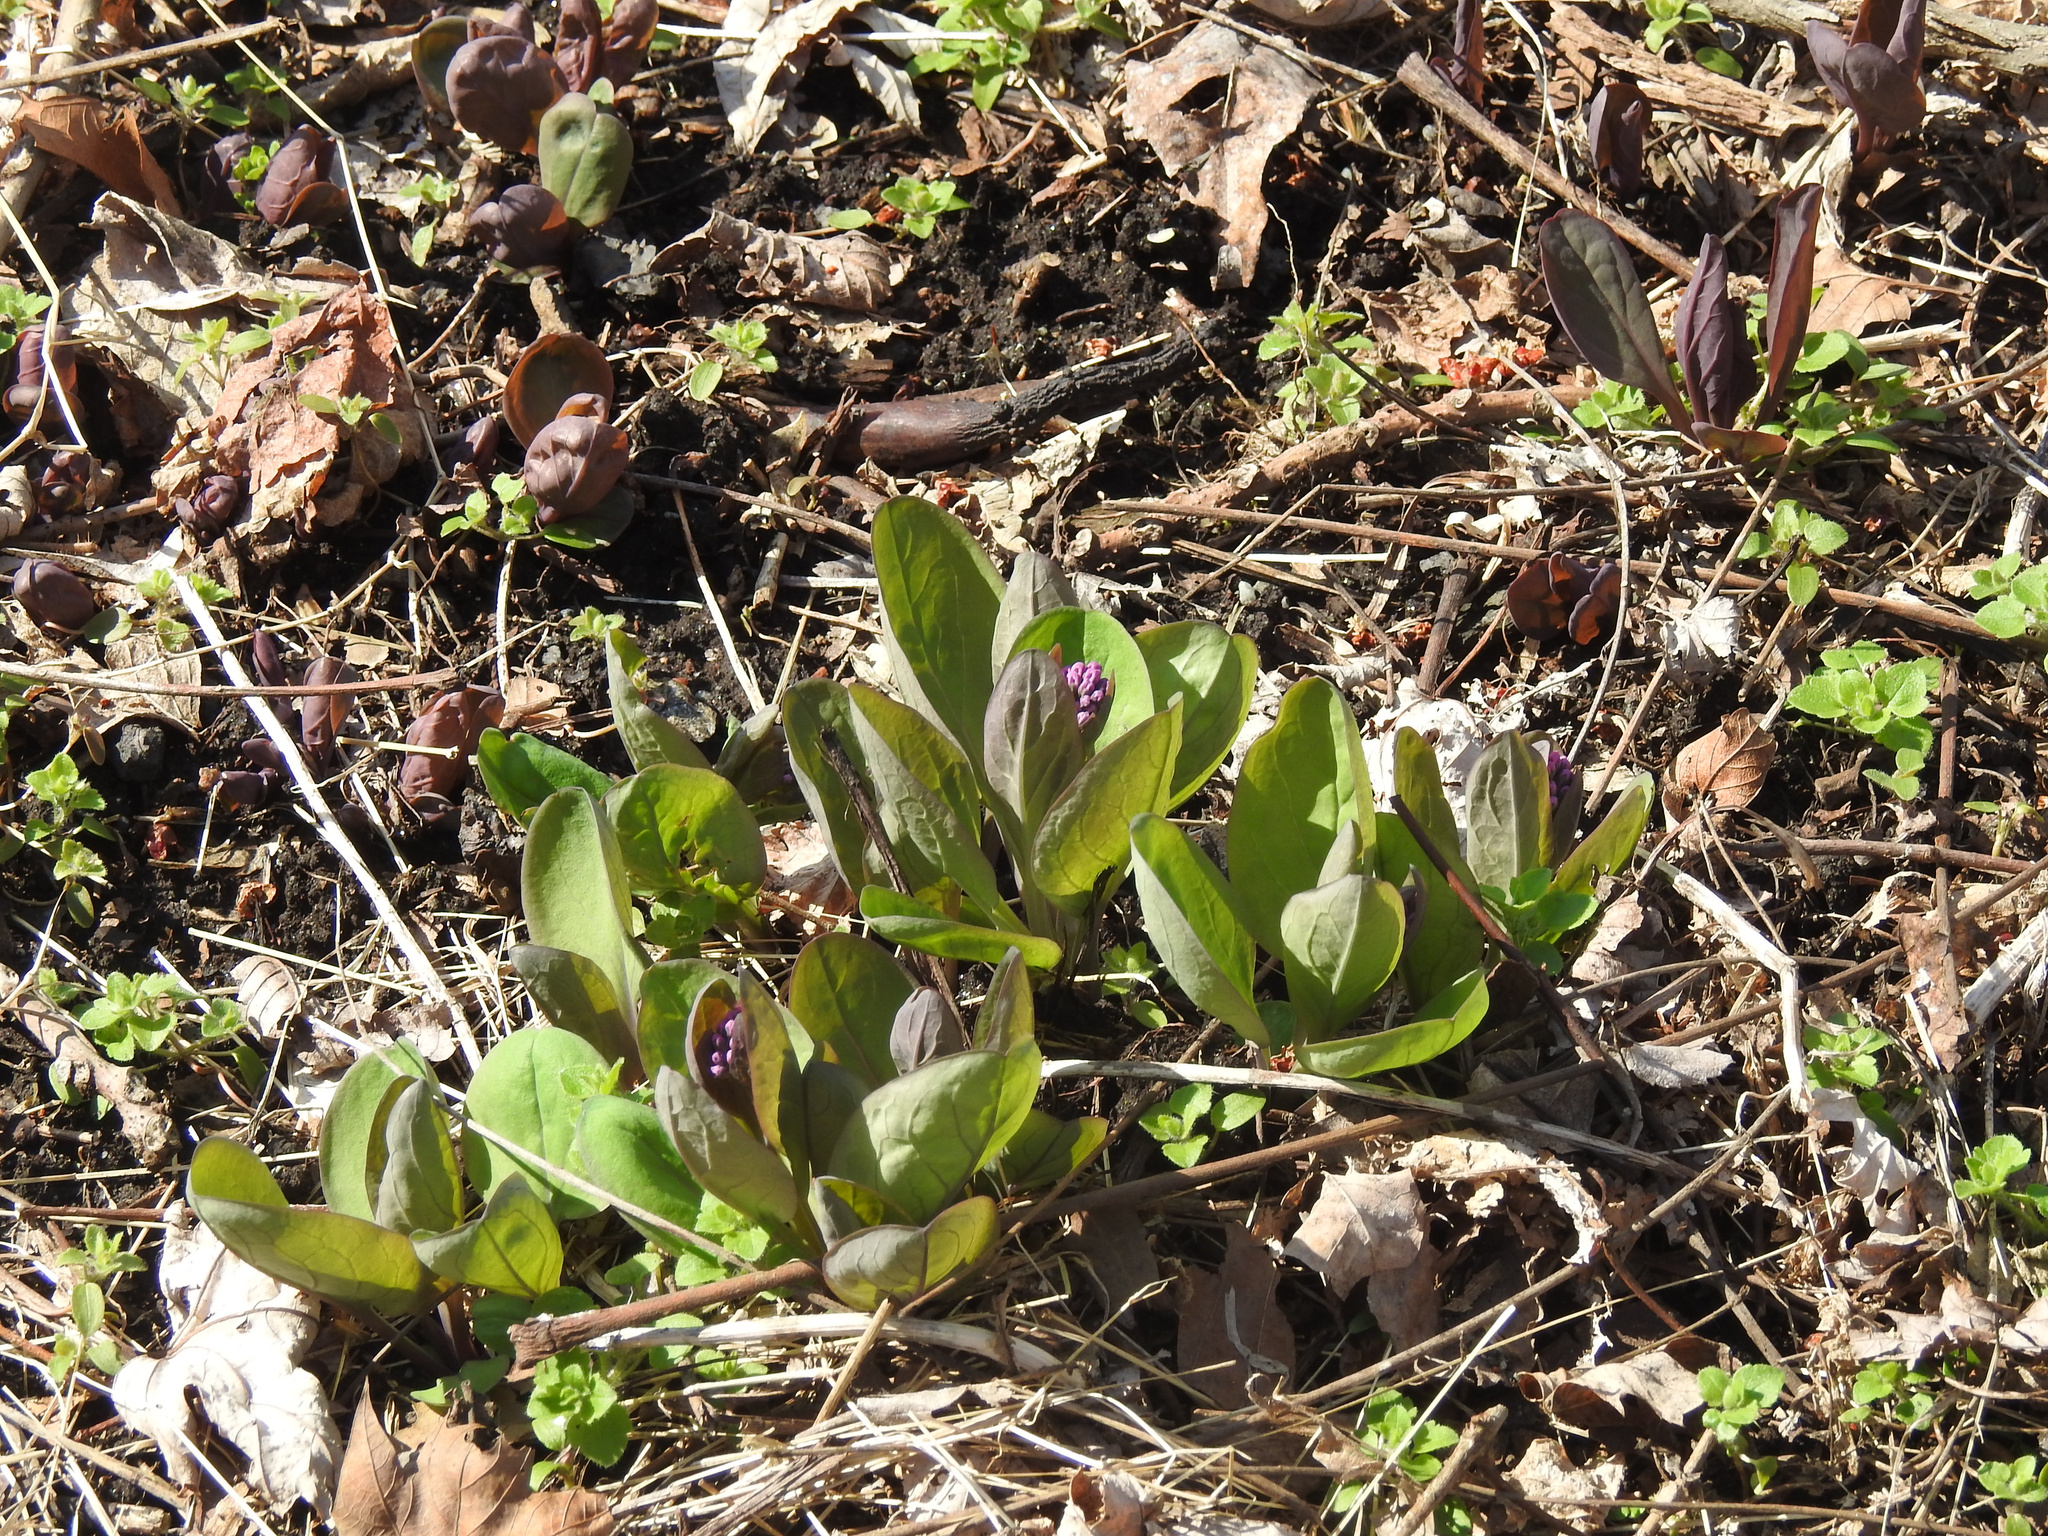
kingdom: Plantae
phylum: Tracheophyta
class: Magnoliopsida
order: Boraginales
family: Boraginaceae
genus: Mertensia
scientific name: Mertensia virginica
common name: Virginia bluebells
